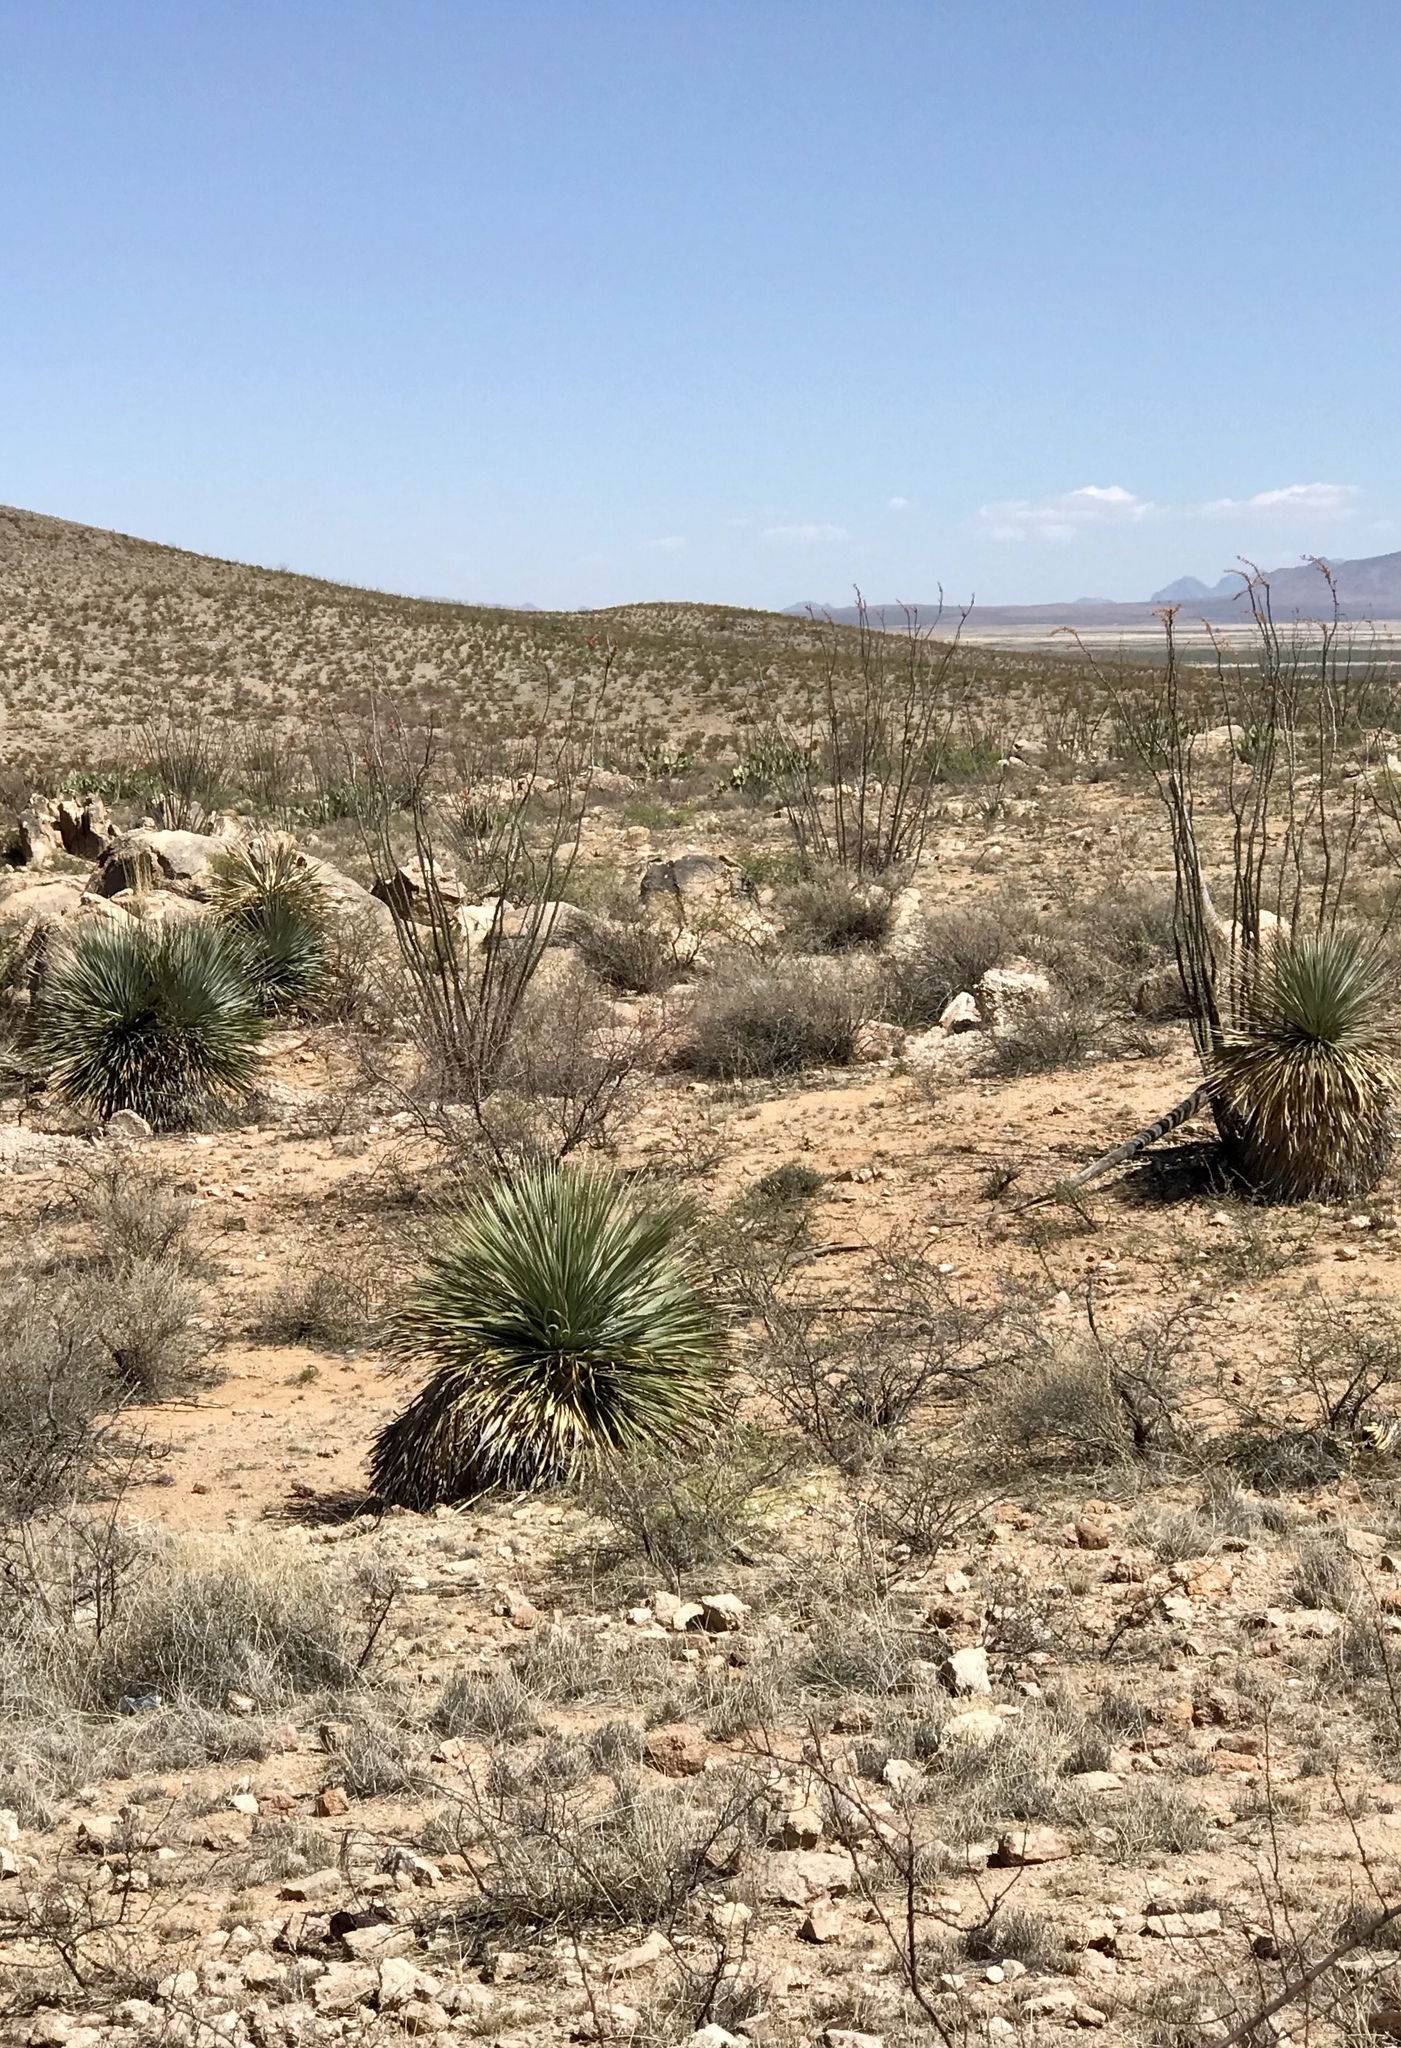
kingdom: Plantae
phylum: Tracheophyta
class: Liliopsida
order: Asparagales
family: Asparagaceae
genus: Dasylirion
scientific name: Dasylirion wheeleri
